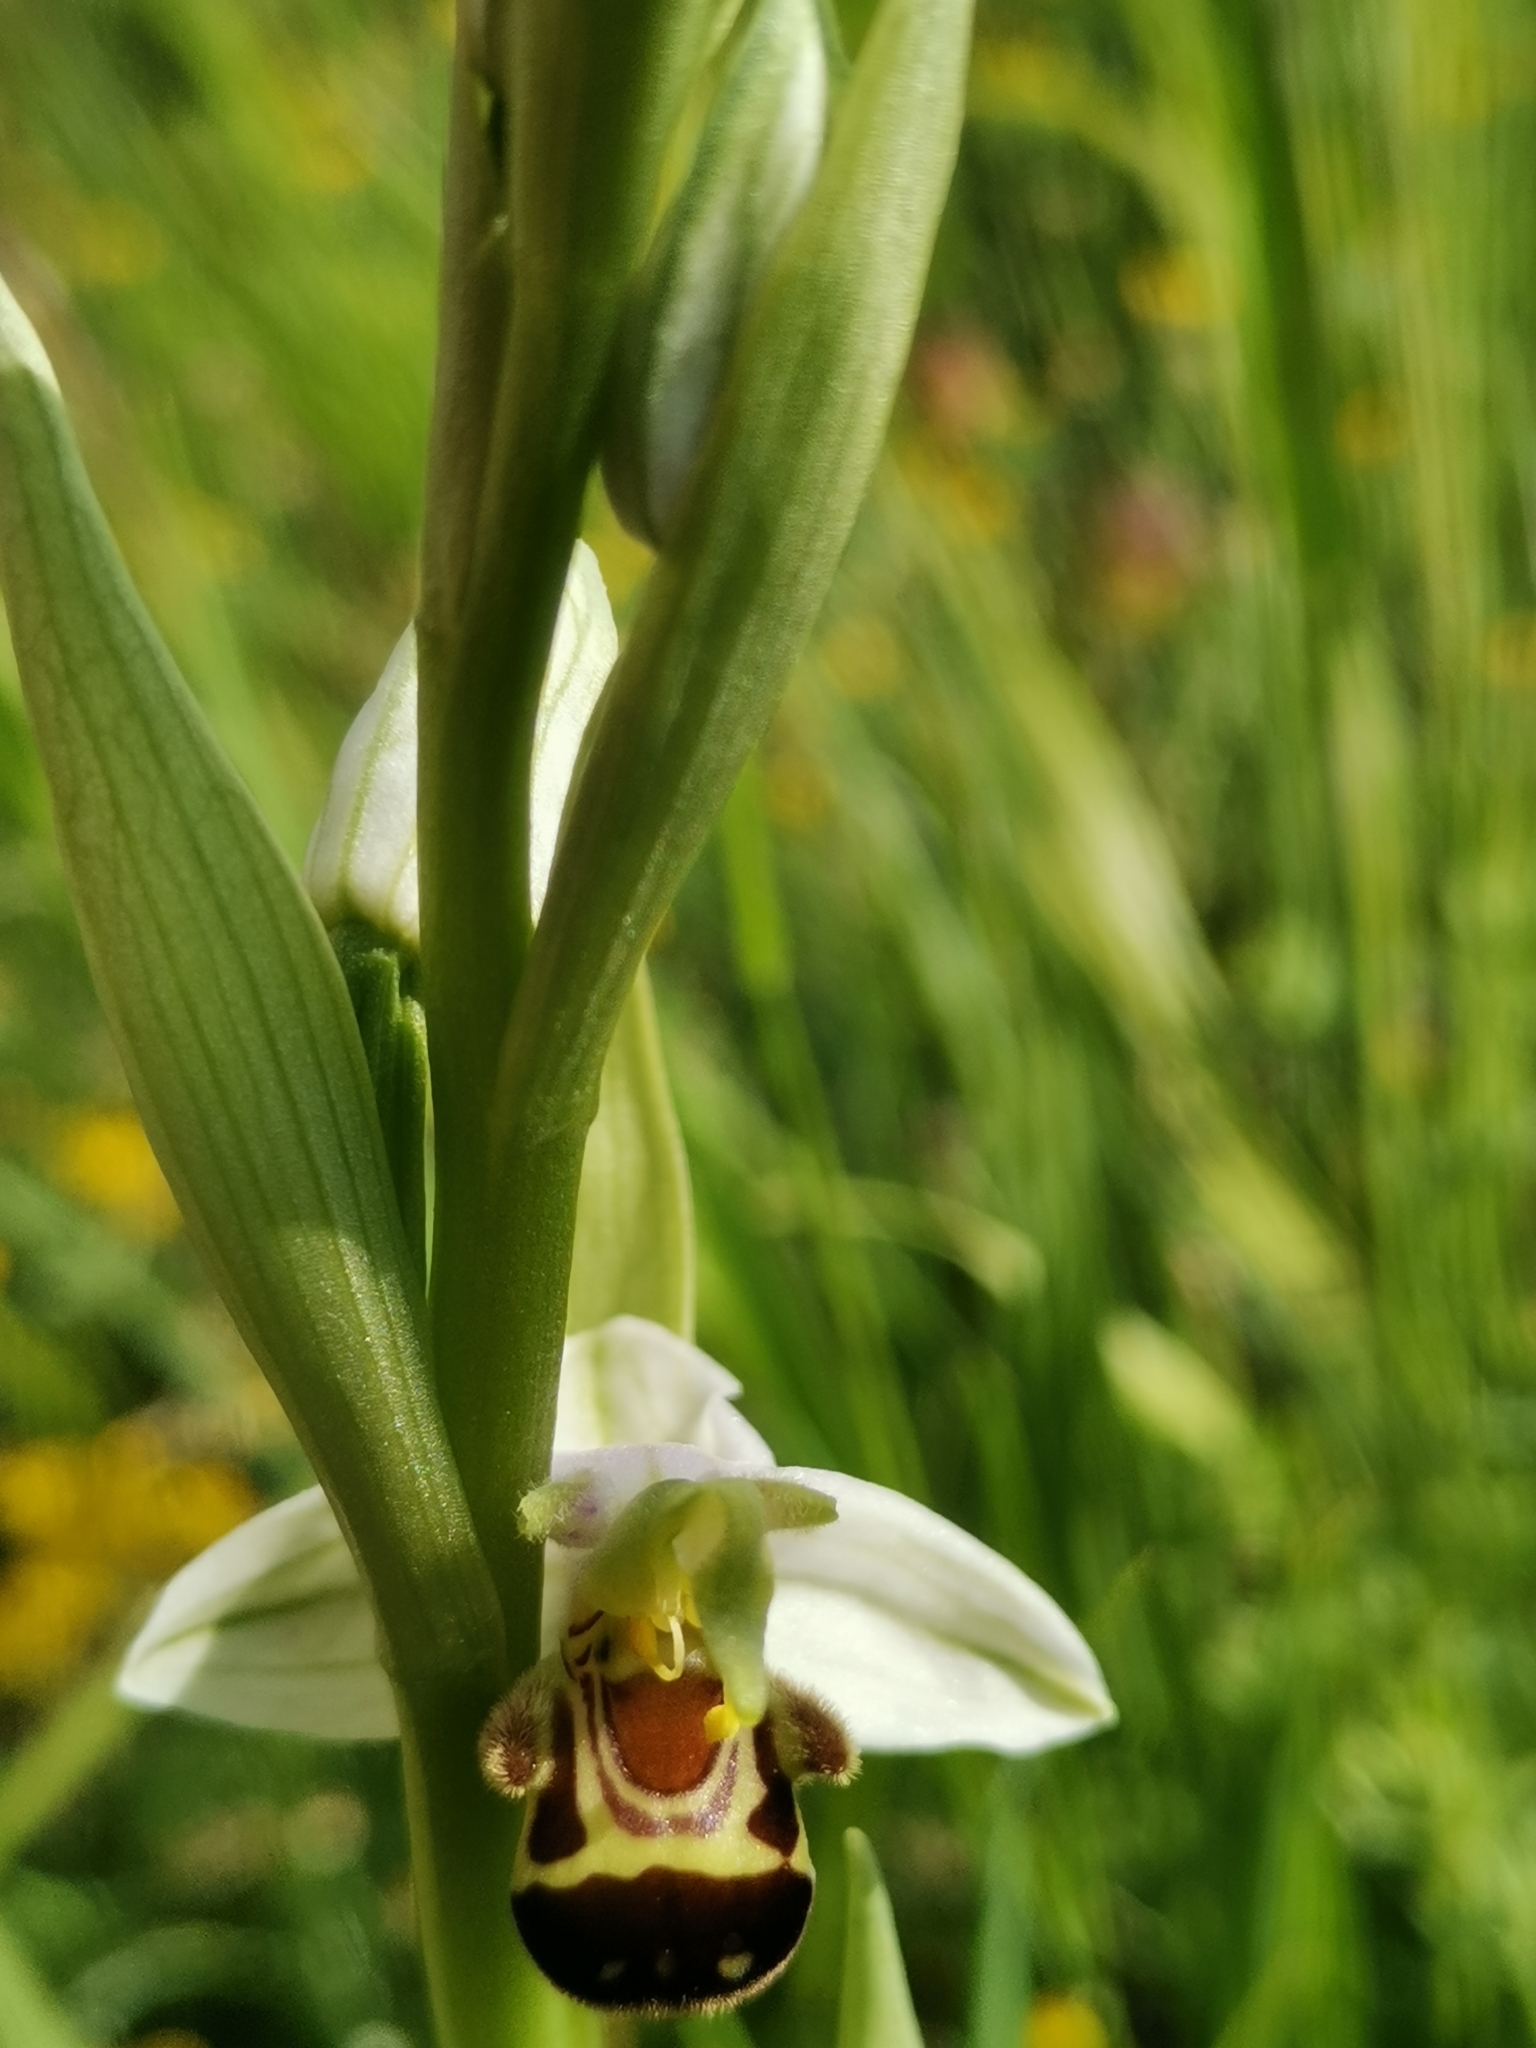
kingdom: Plantae
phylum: Tracheophyta
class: Liliopsida
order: Asparagales
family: Orchidaceae
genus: Ophrys
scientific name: Ophrys apifera
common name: Bee orchid
